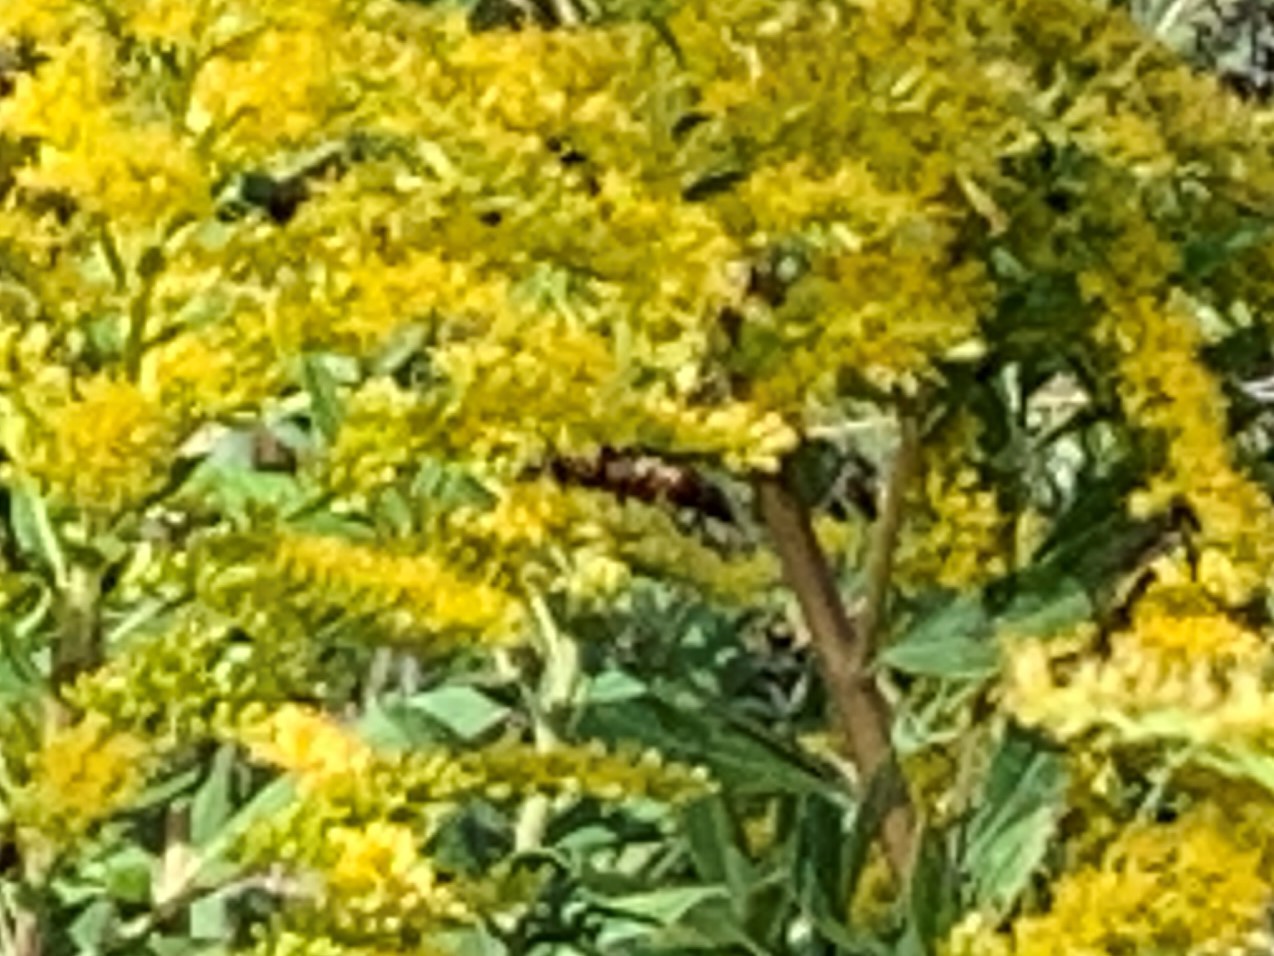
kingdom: Animalia
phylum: Arthropoda
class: Insecta
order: Hymenoptera
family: Eumenidae
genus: Polistes
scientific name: Polistes
